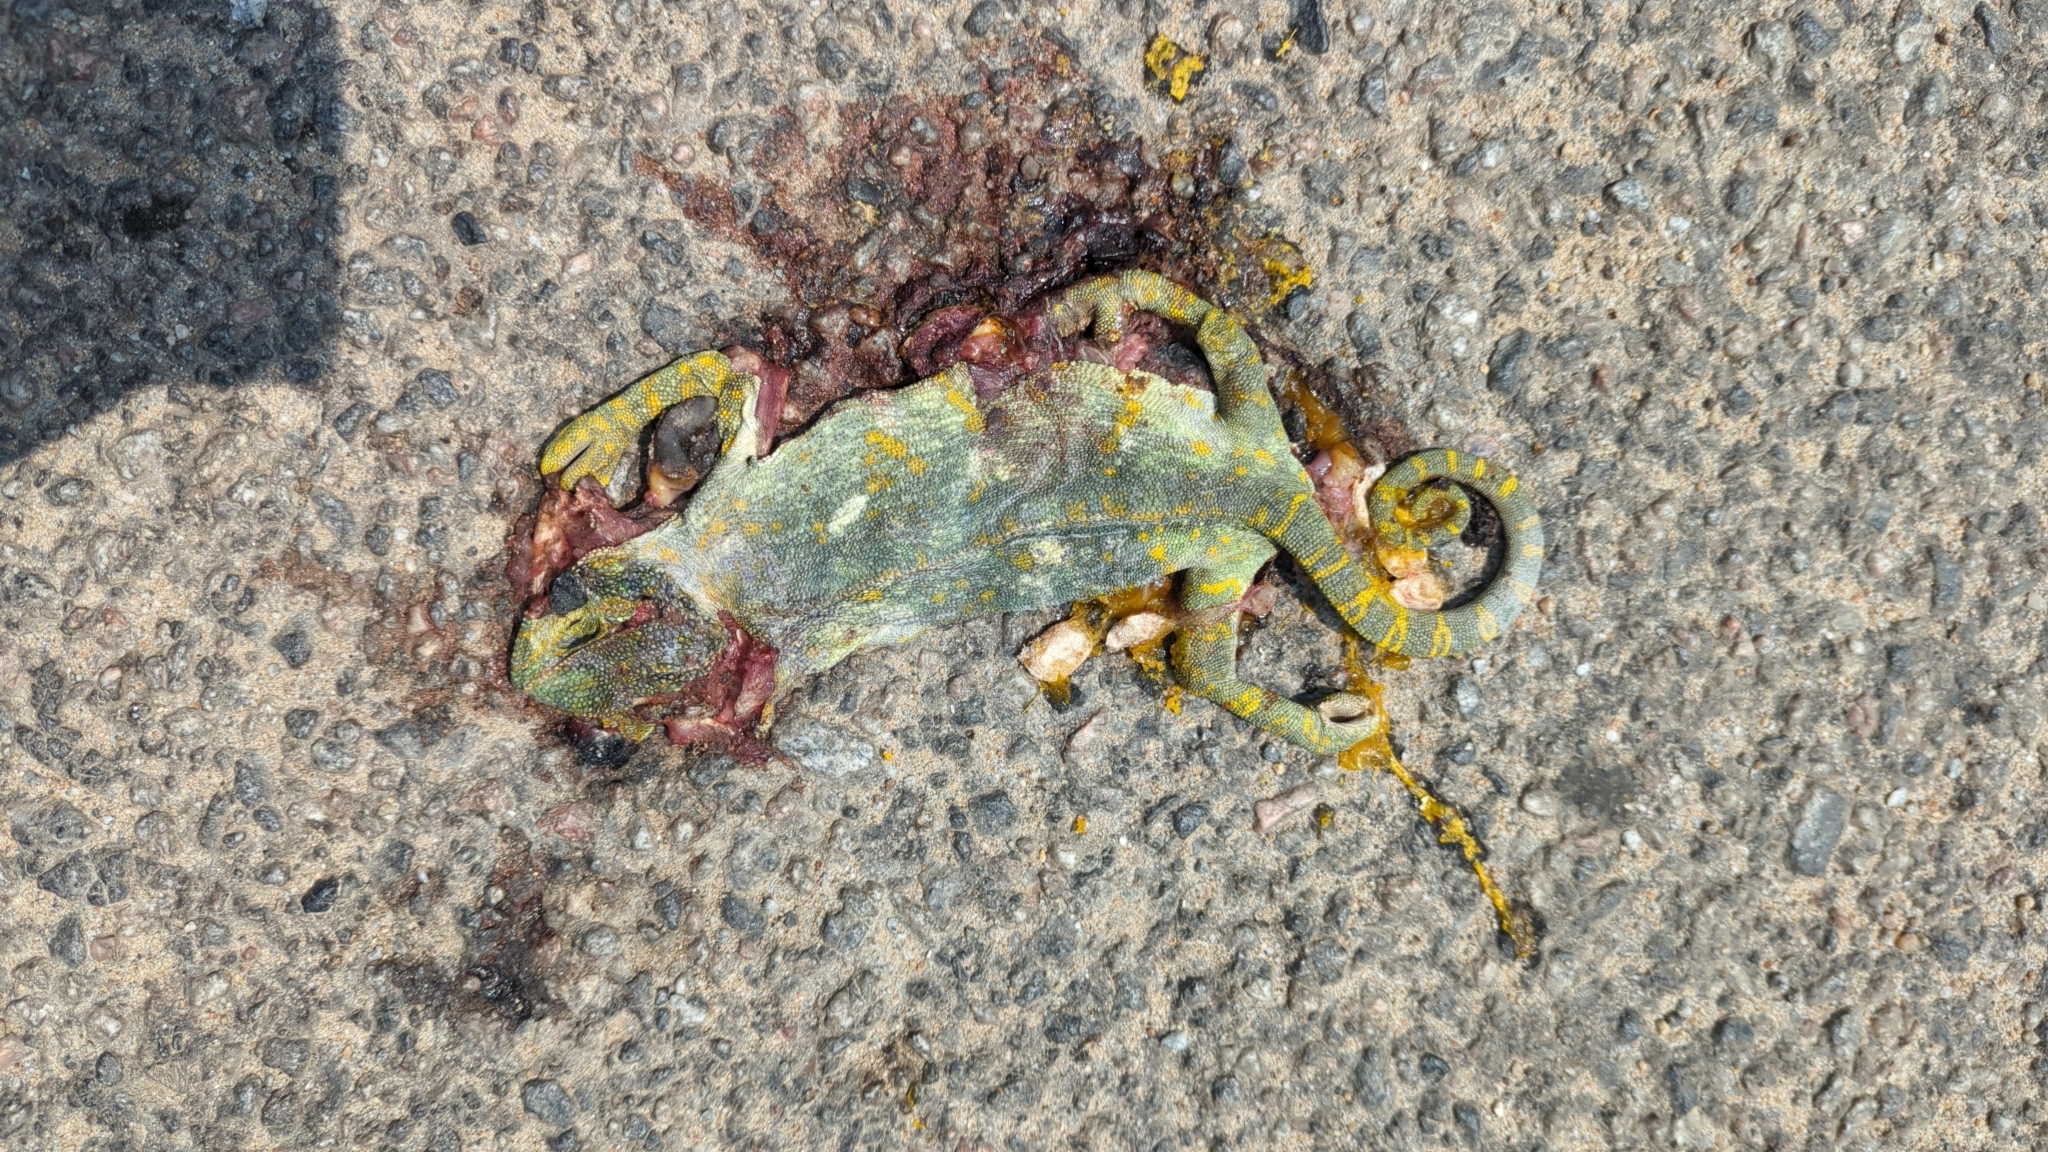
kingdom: Animalia
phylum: Chordata
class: Squamata
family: Chamaeleonidae
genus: Chamaeleo
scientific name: Chamaeleo zeylanicus
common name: Indian chameleon
